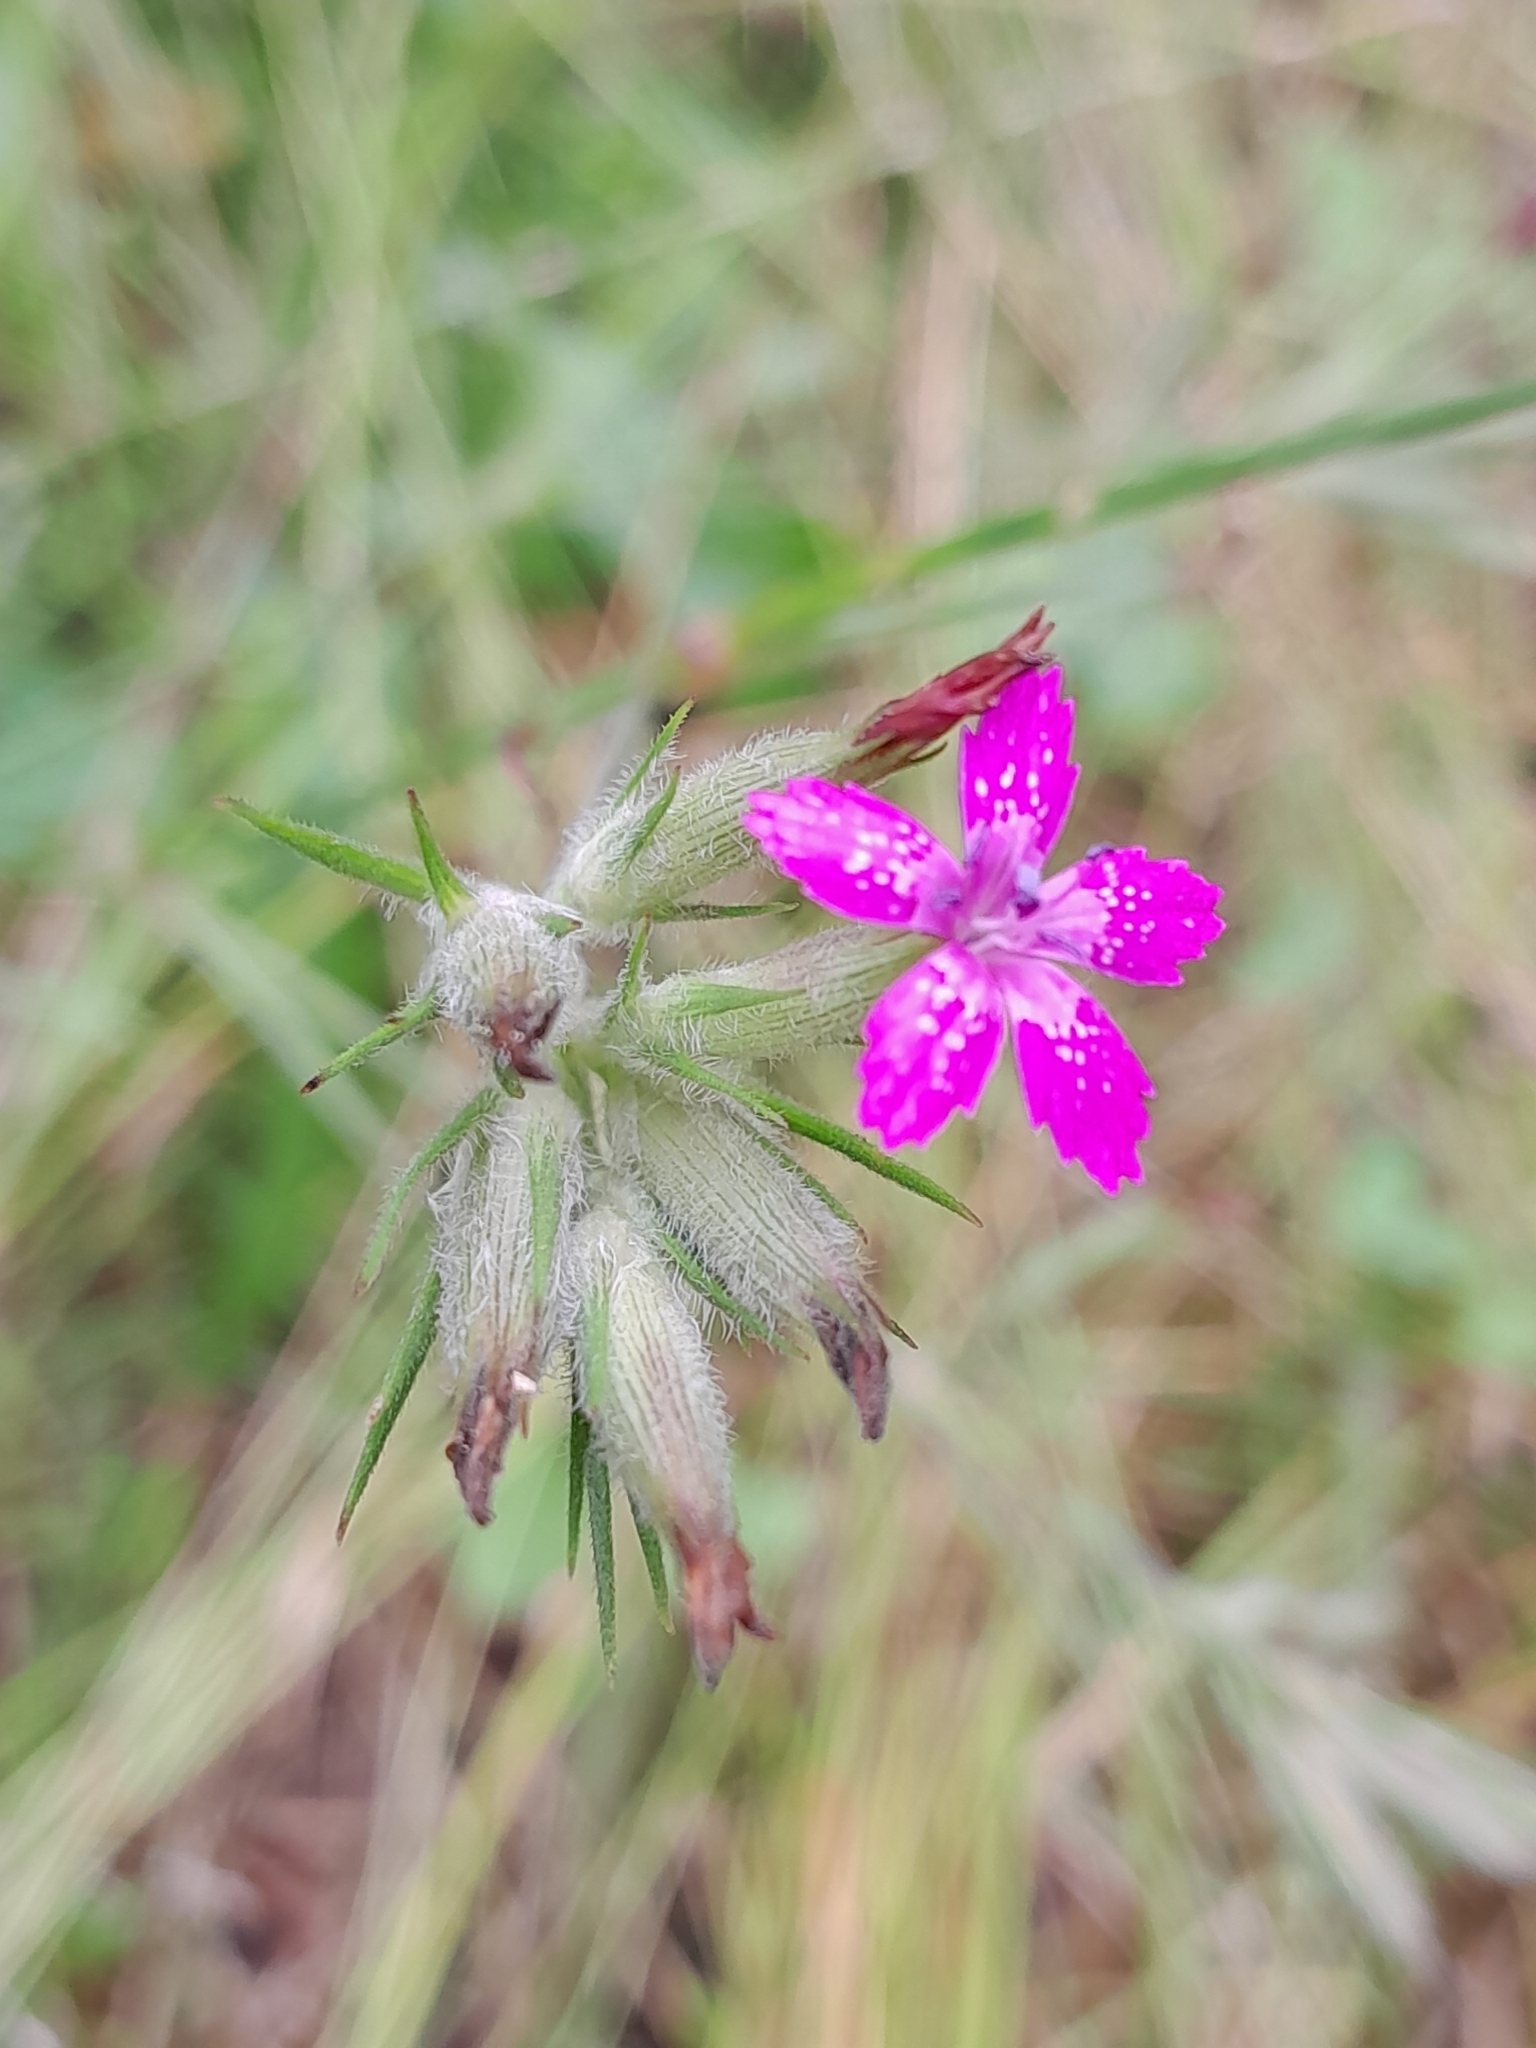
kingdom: Plantae
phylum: Tracheophyta
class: Magnoliopsida
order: Caryophyllales
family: Caryophyllaceae
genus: Dianthus
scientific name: Dianthus armeria
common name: Deptford pink
